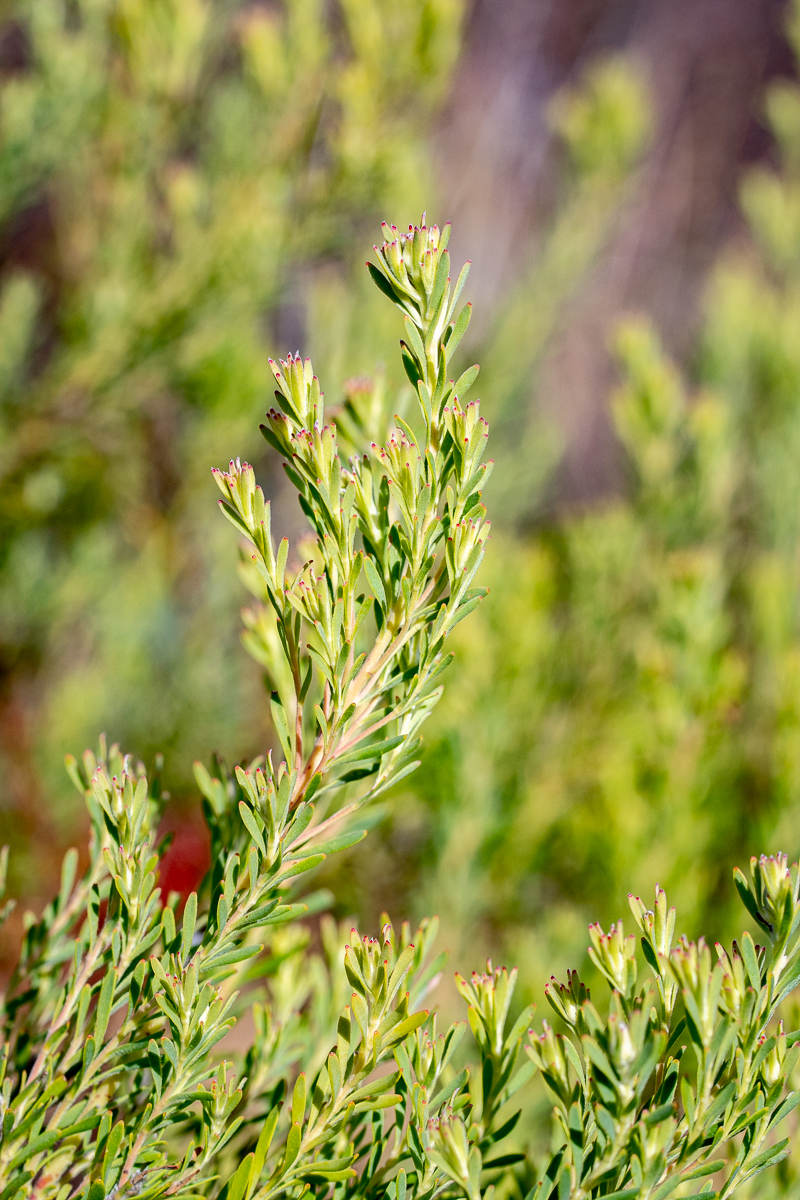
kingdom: Plantae
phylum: Tracheophyta
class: Magnoliopsida
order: Proteales
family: Proteaceae
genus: Leucadendron
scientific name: Leucadendron linifolium
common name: Line-leaf conebush
